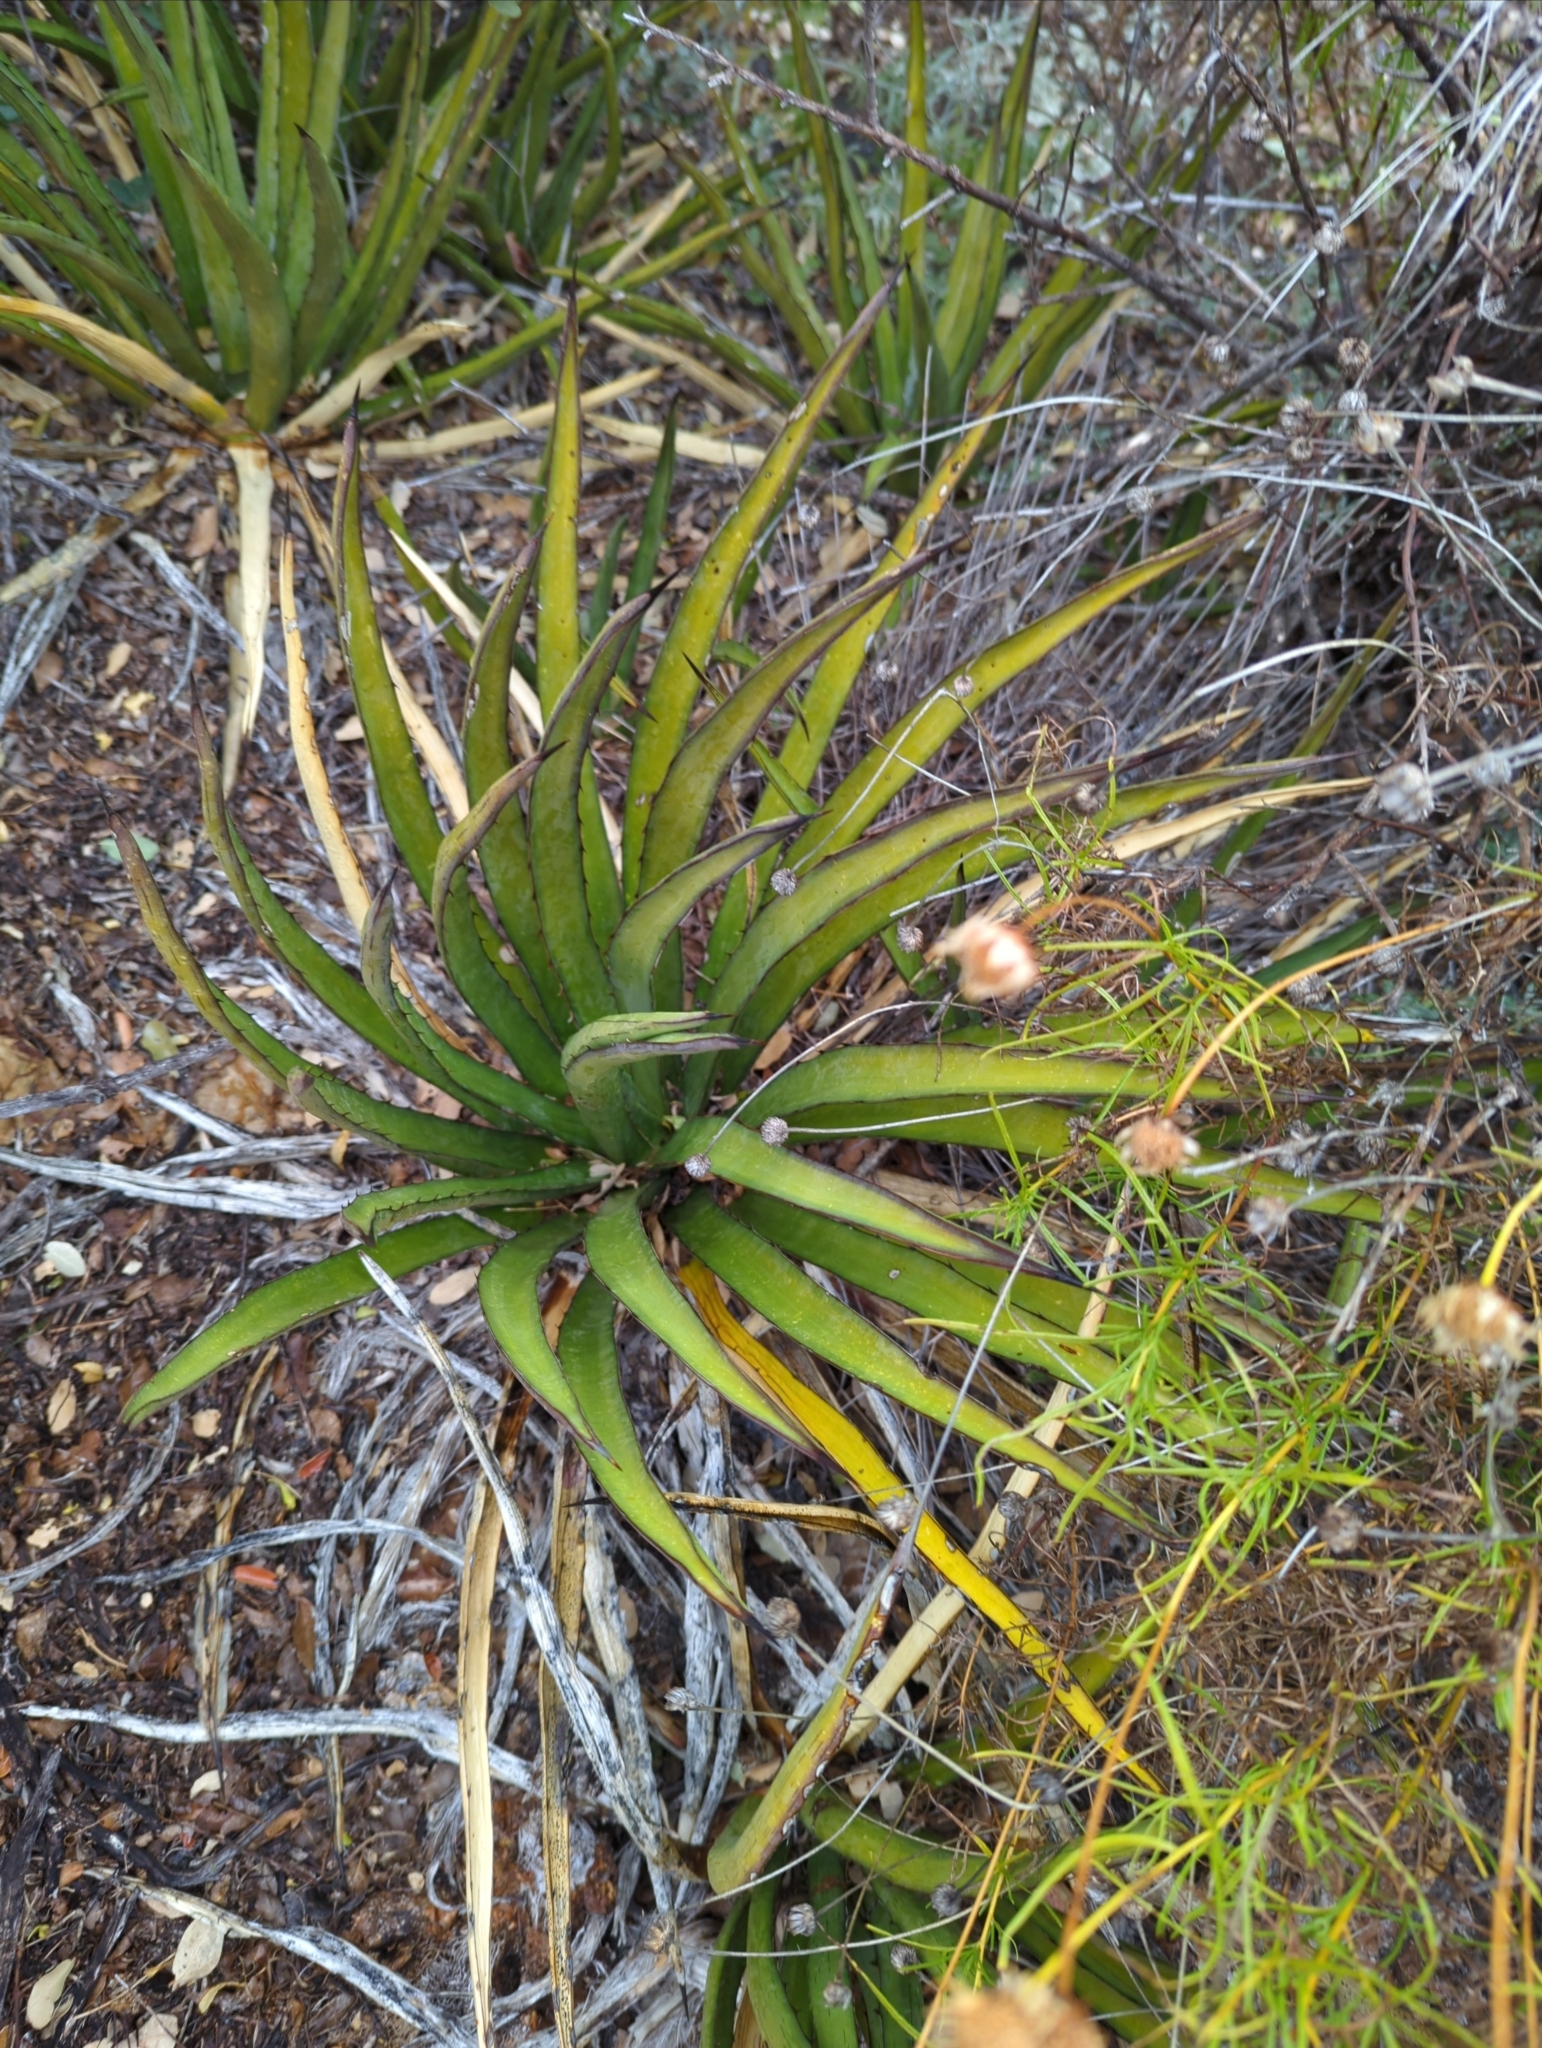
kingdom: Plantae
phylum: Tracheophyta
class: Liliopsida
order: Asparagales
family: Asparagaceae
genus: Agave
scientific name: Agave lechuguilla
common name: Lecheguilla agave
